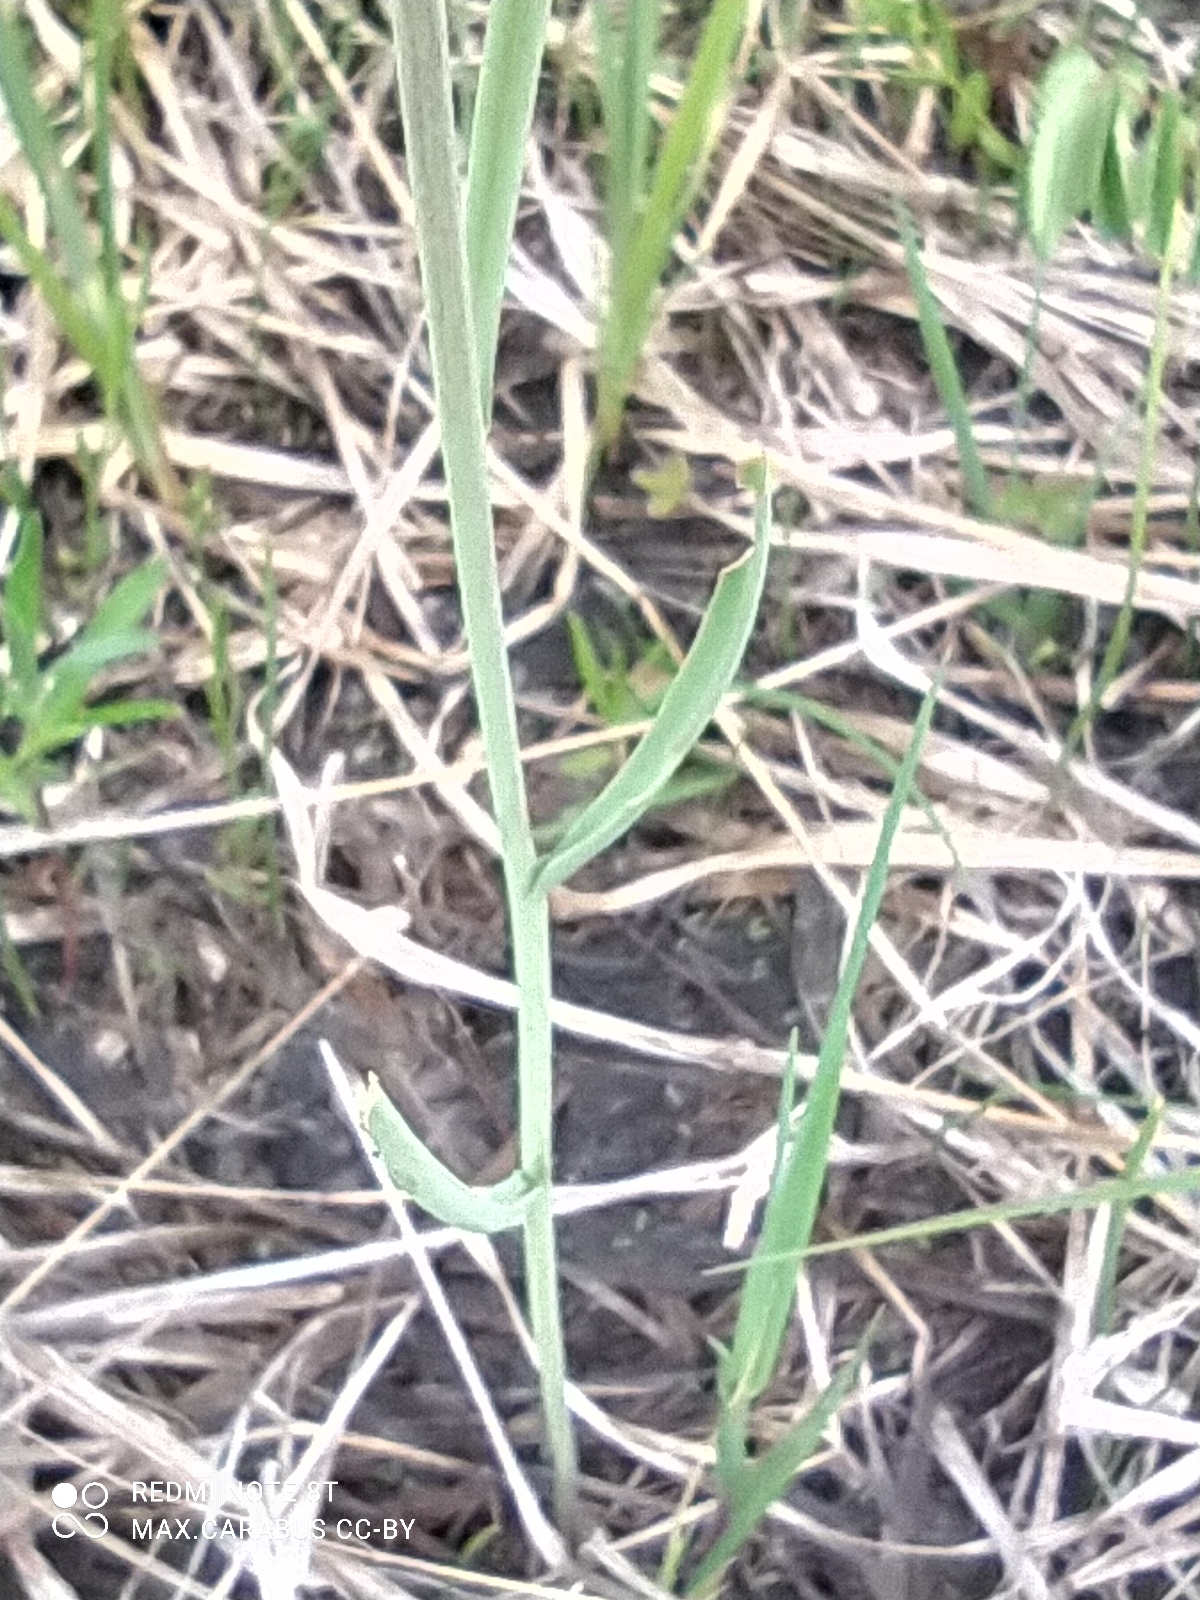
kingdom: Plantae
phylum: Tracheophyta
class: Liliopsida
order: Liliales
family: Liliaceae
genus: Fritillaria
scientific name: Fritillaria meleagroides
